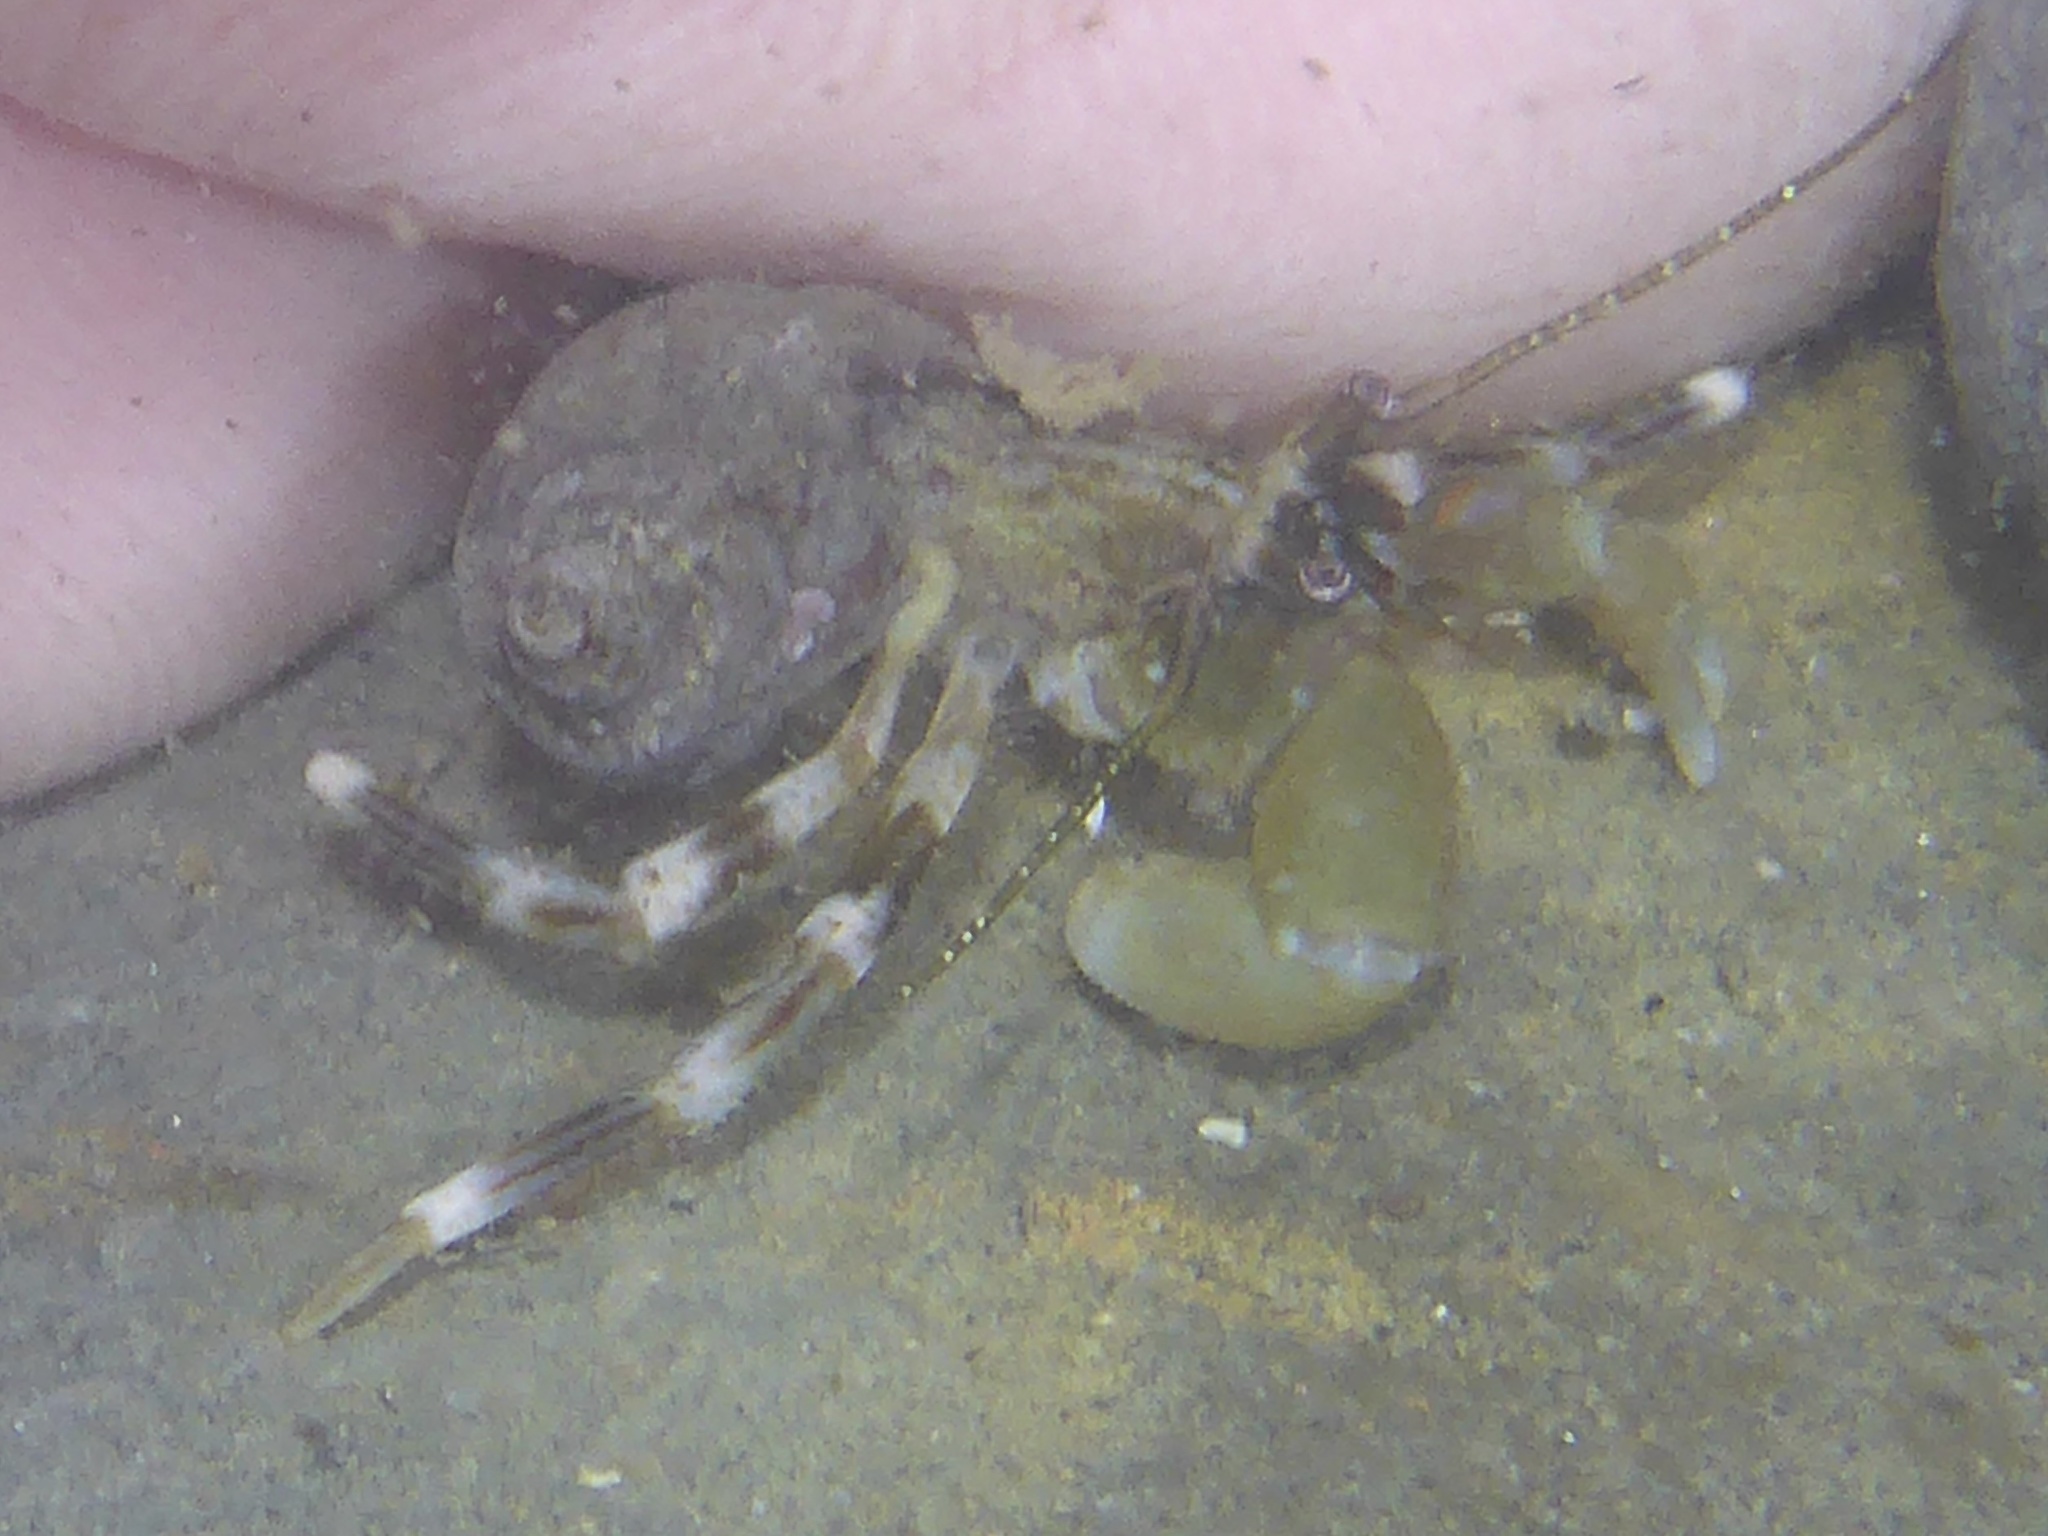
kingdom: Animalia
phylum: Arthropoda
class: Malacostraca
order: Decapoda
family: Paguridae
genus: Pagurus
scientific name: Pagurus venturensis
